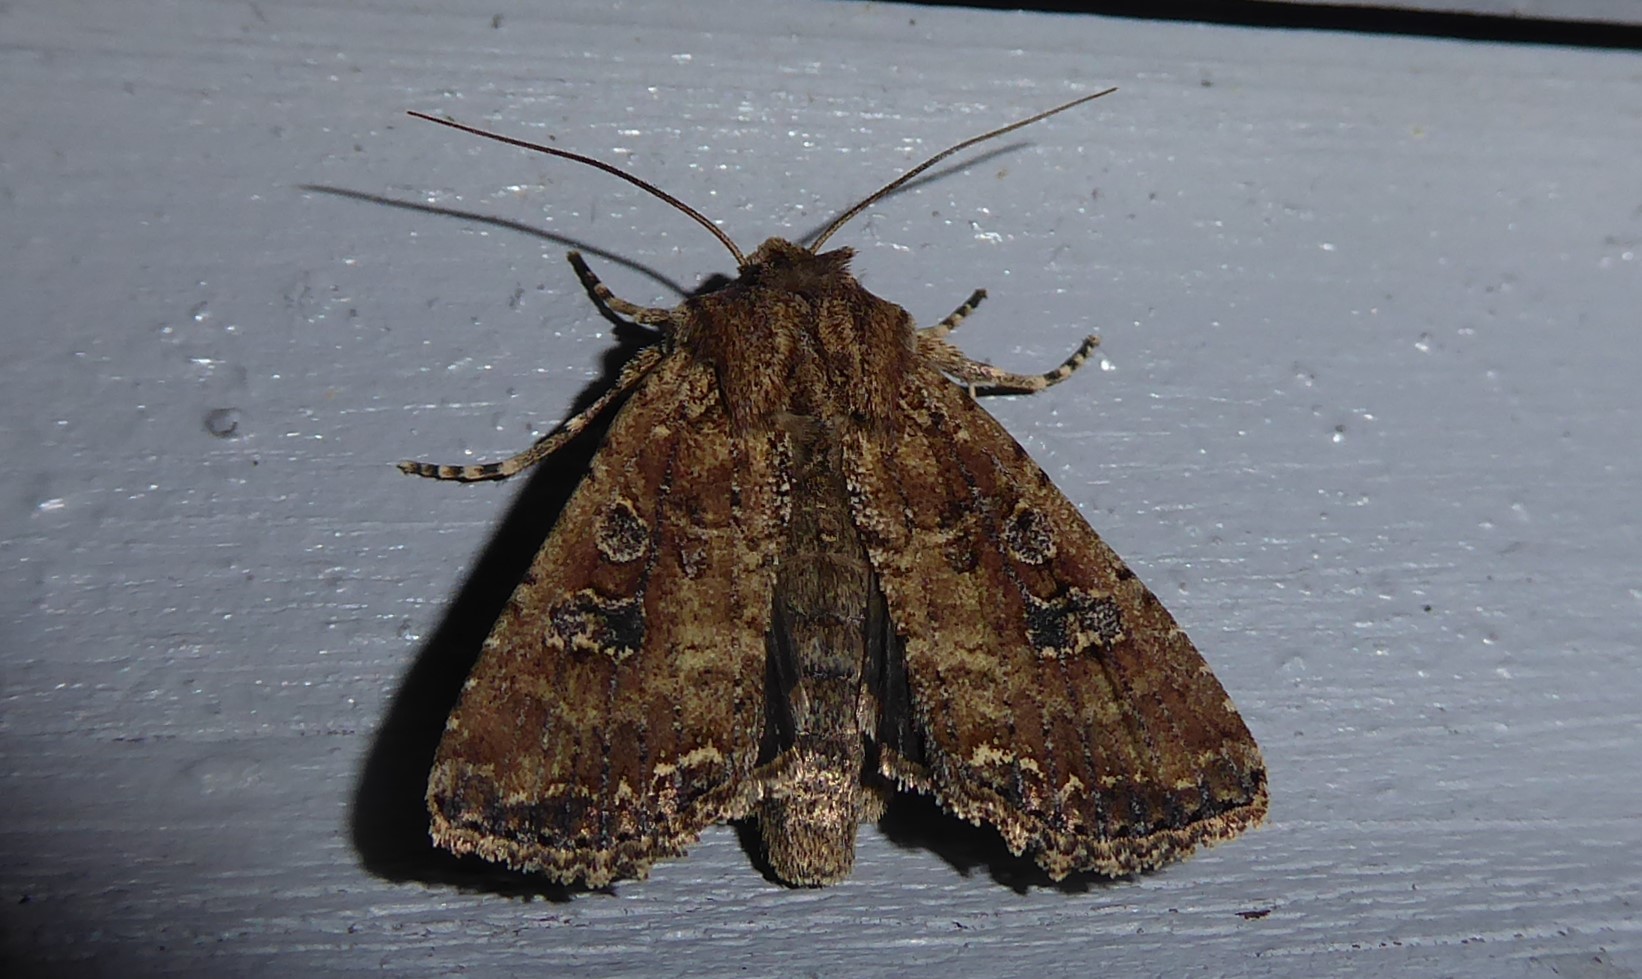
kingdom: Animalia
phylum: Arthropoda
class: Insecta
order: Lepidoptera
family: Noctuidae
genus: Ichneutica
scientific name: Ichneutica morosa
